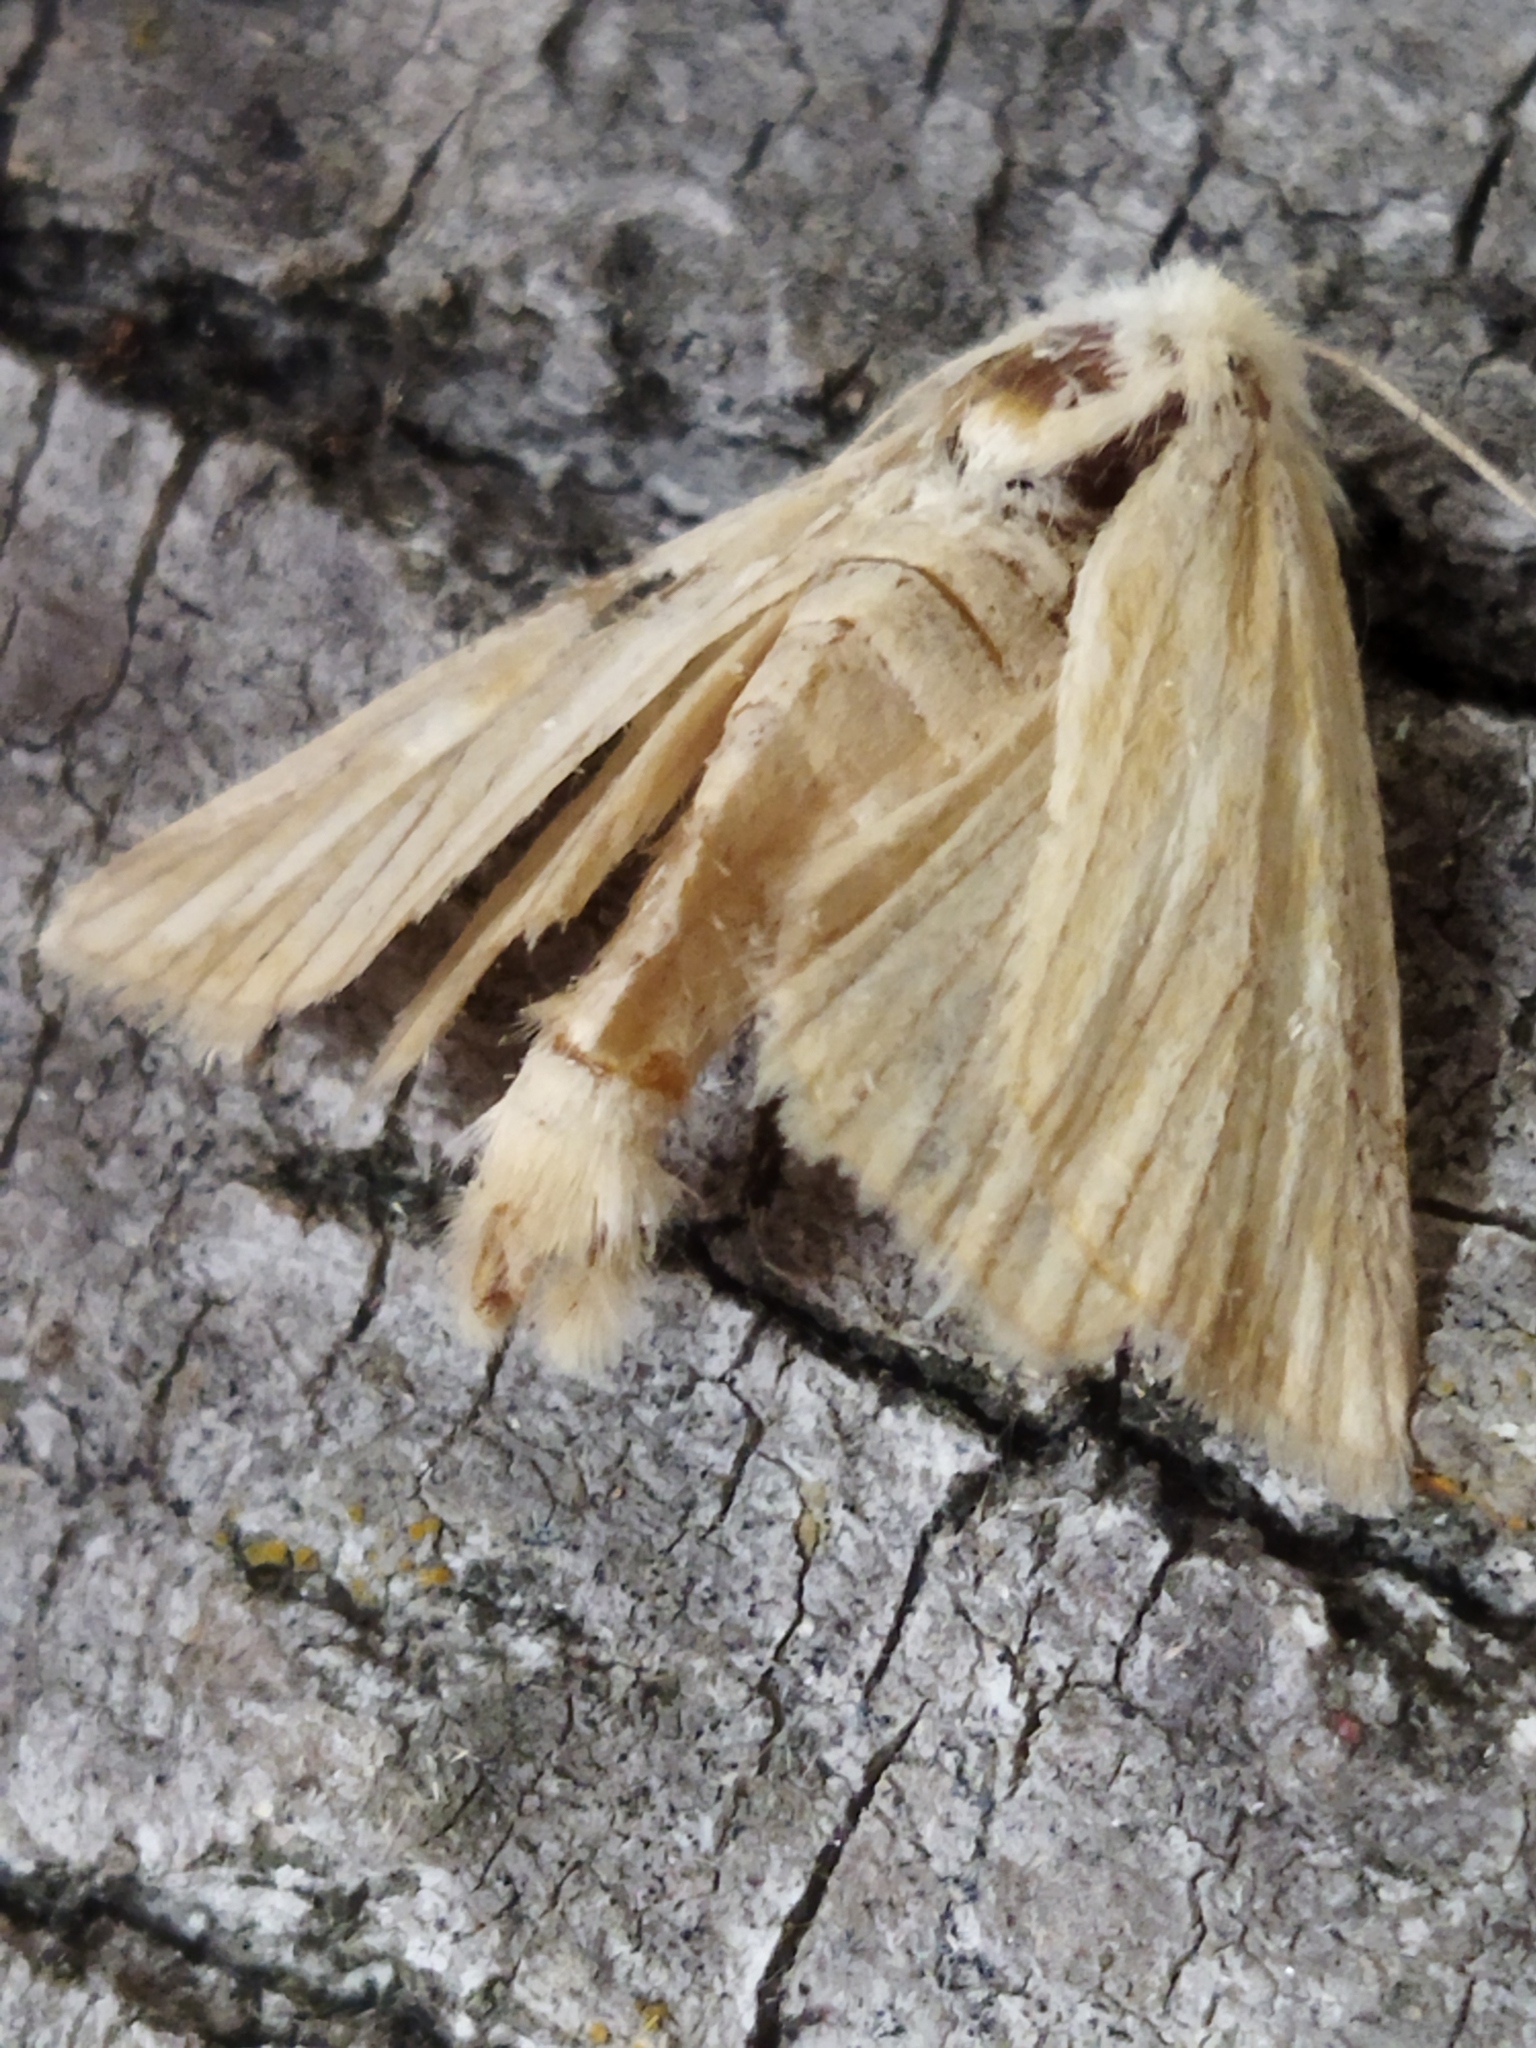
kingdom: Animalia
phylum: Arthropoda
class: Insecta
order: Lepidoptera
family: Noctuidae
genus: Oria
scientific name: Oria musculosa
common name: Brighton wainscot
